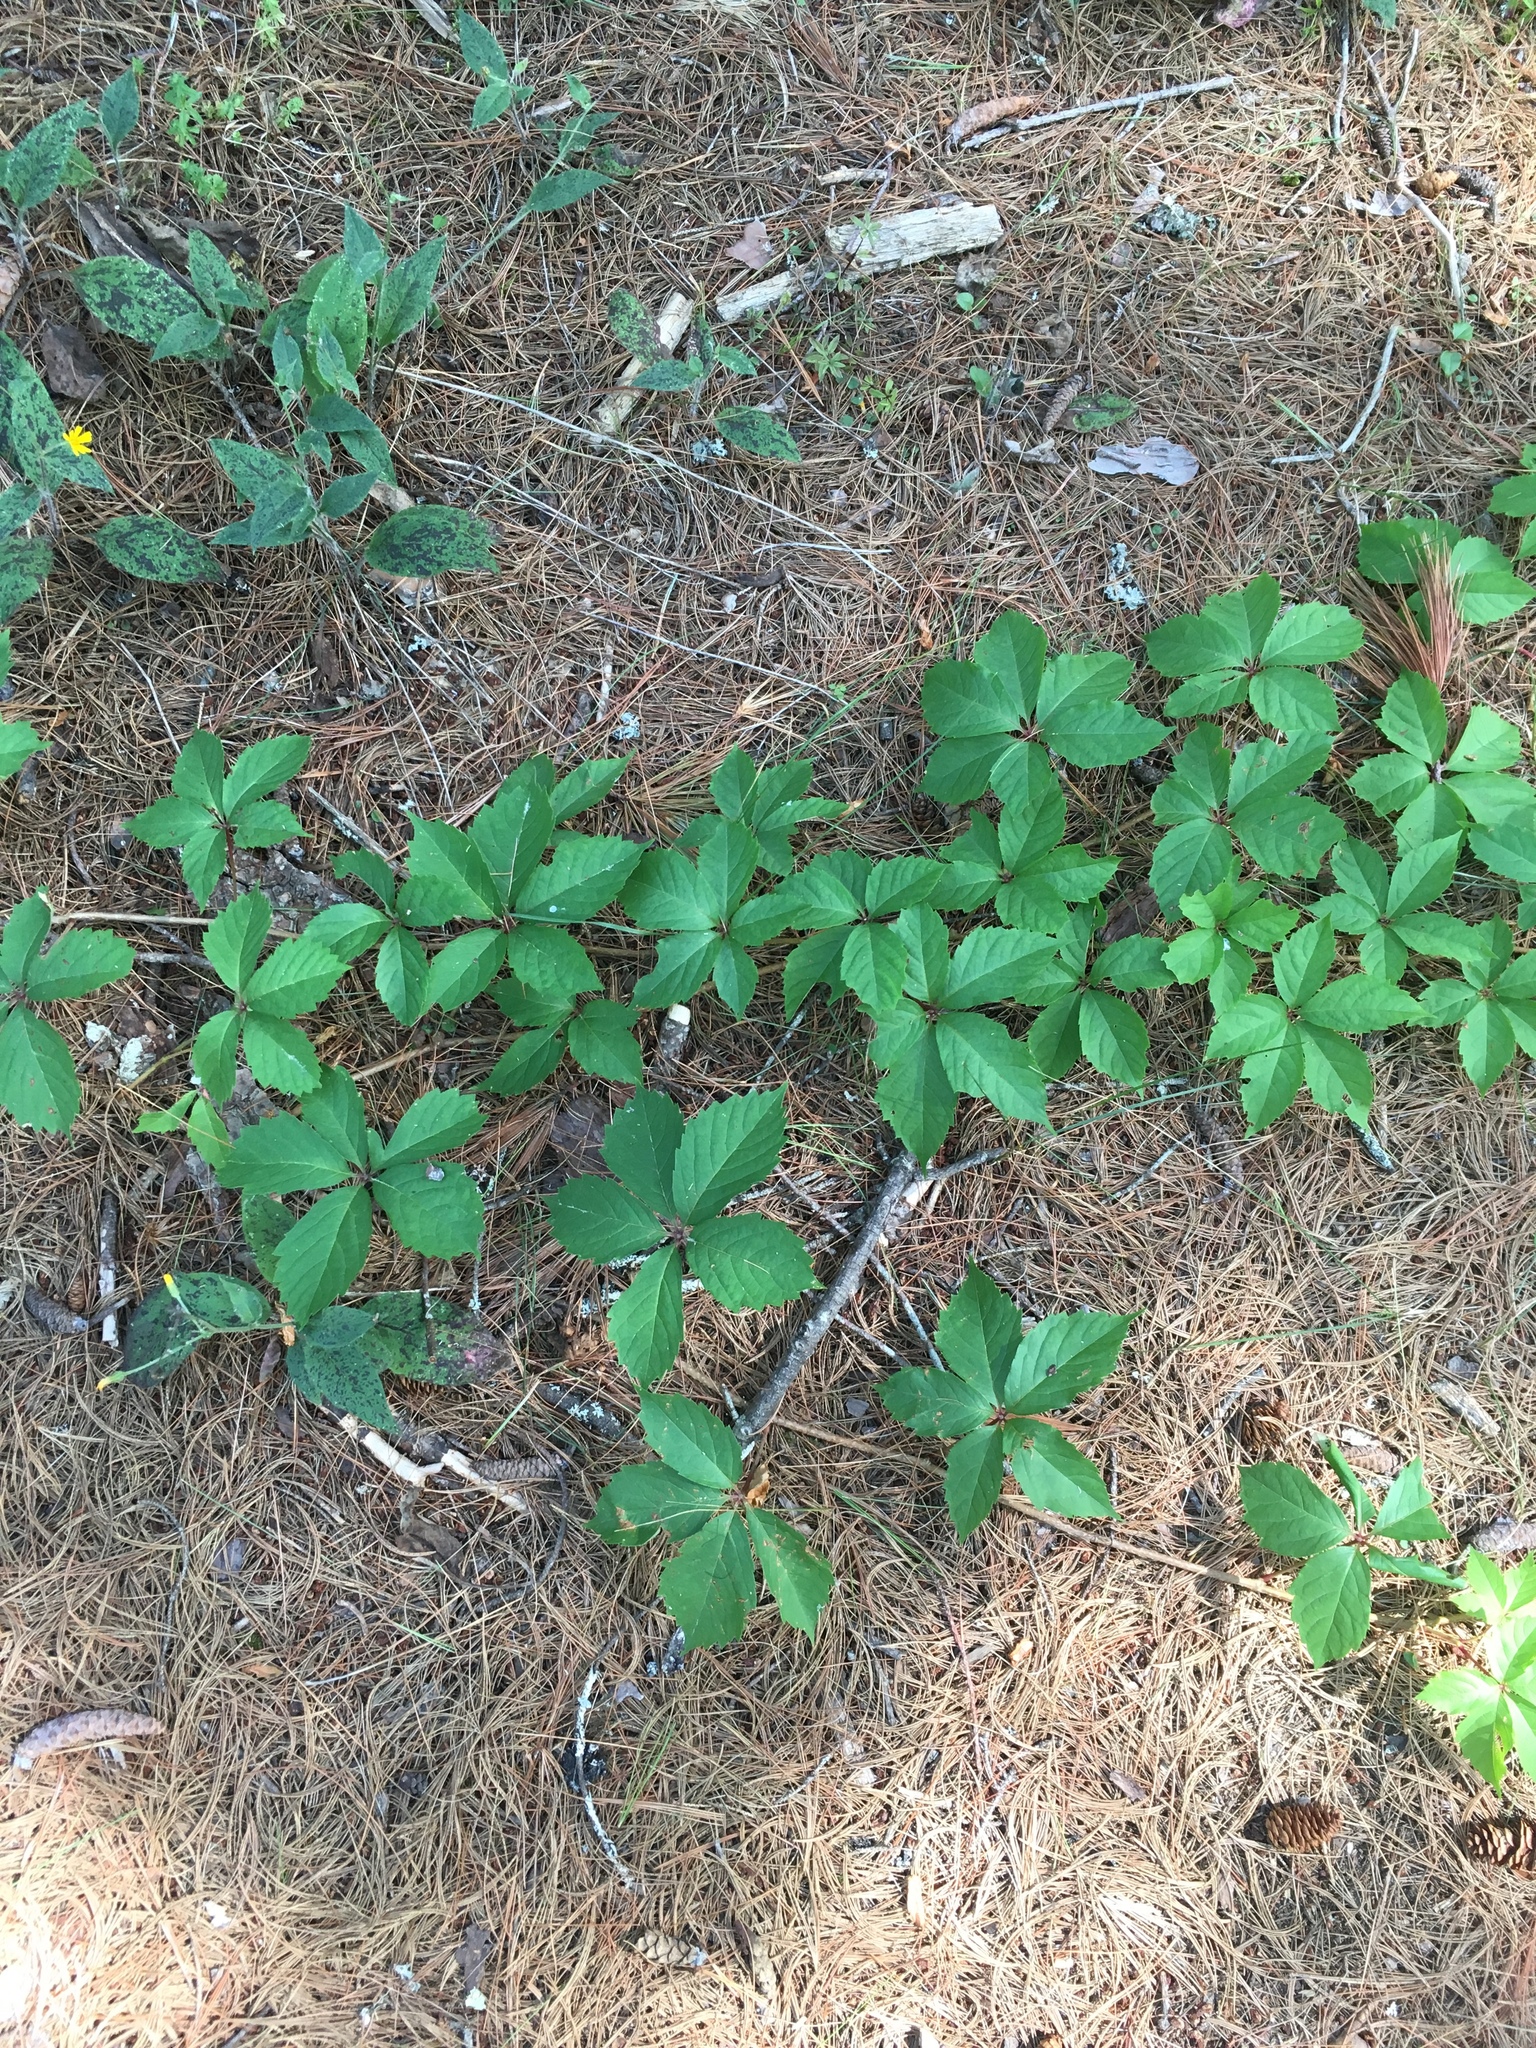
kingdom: Plantae
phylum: Tracheophyta
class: Magnoliopsida
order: Vitales
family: Vitaceae
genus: Parthenocissus
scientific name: Parthenocissus quinquefolia
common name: Virginia-creeper
